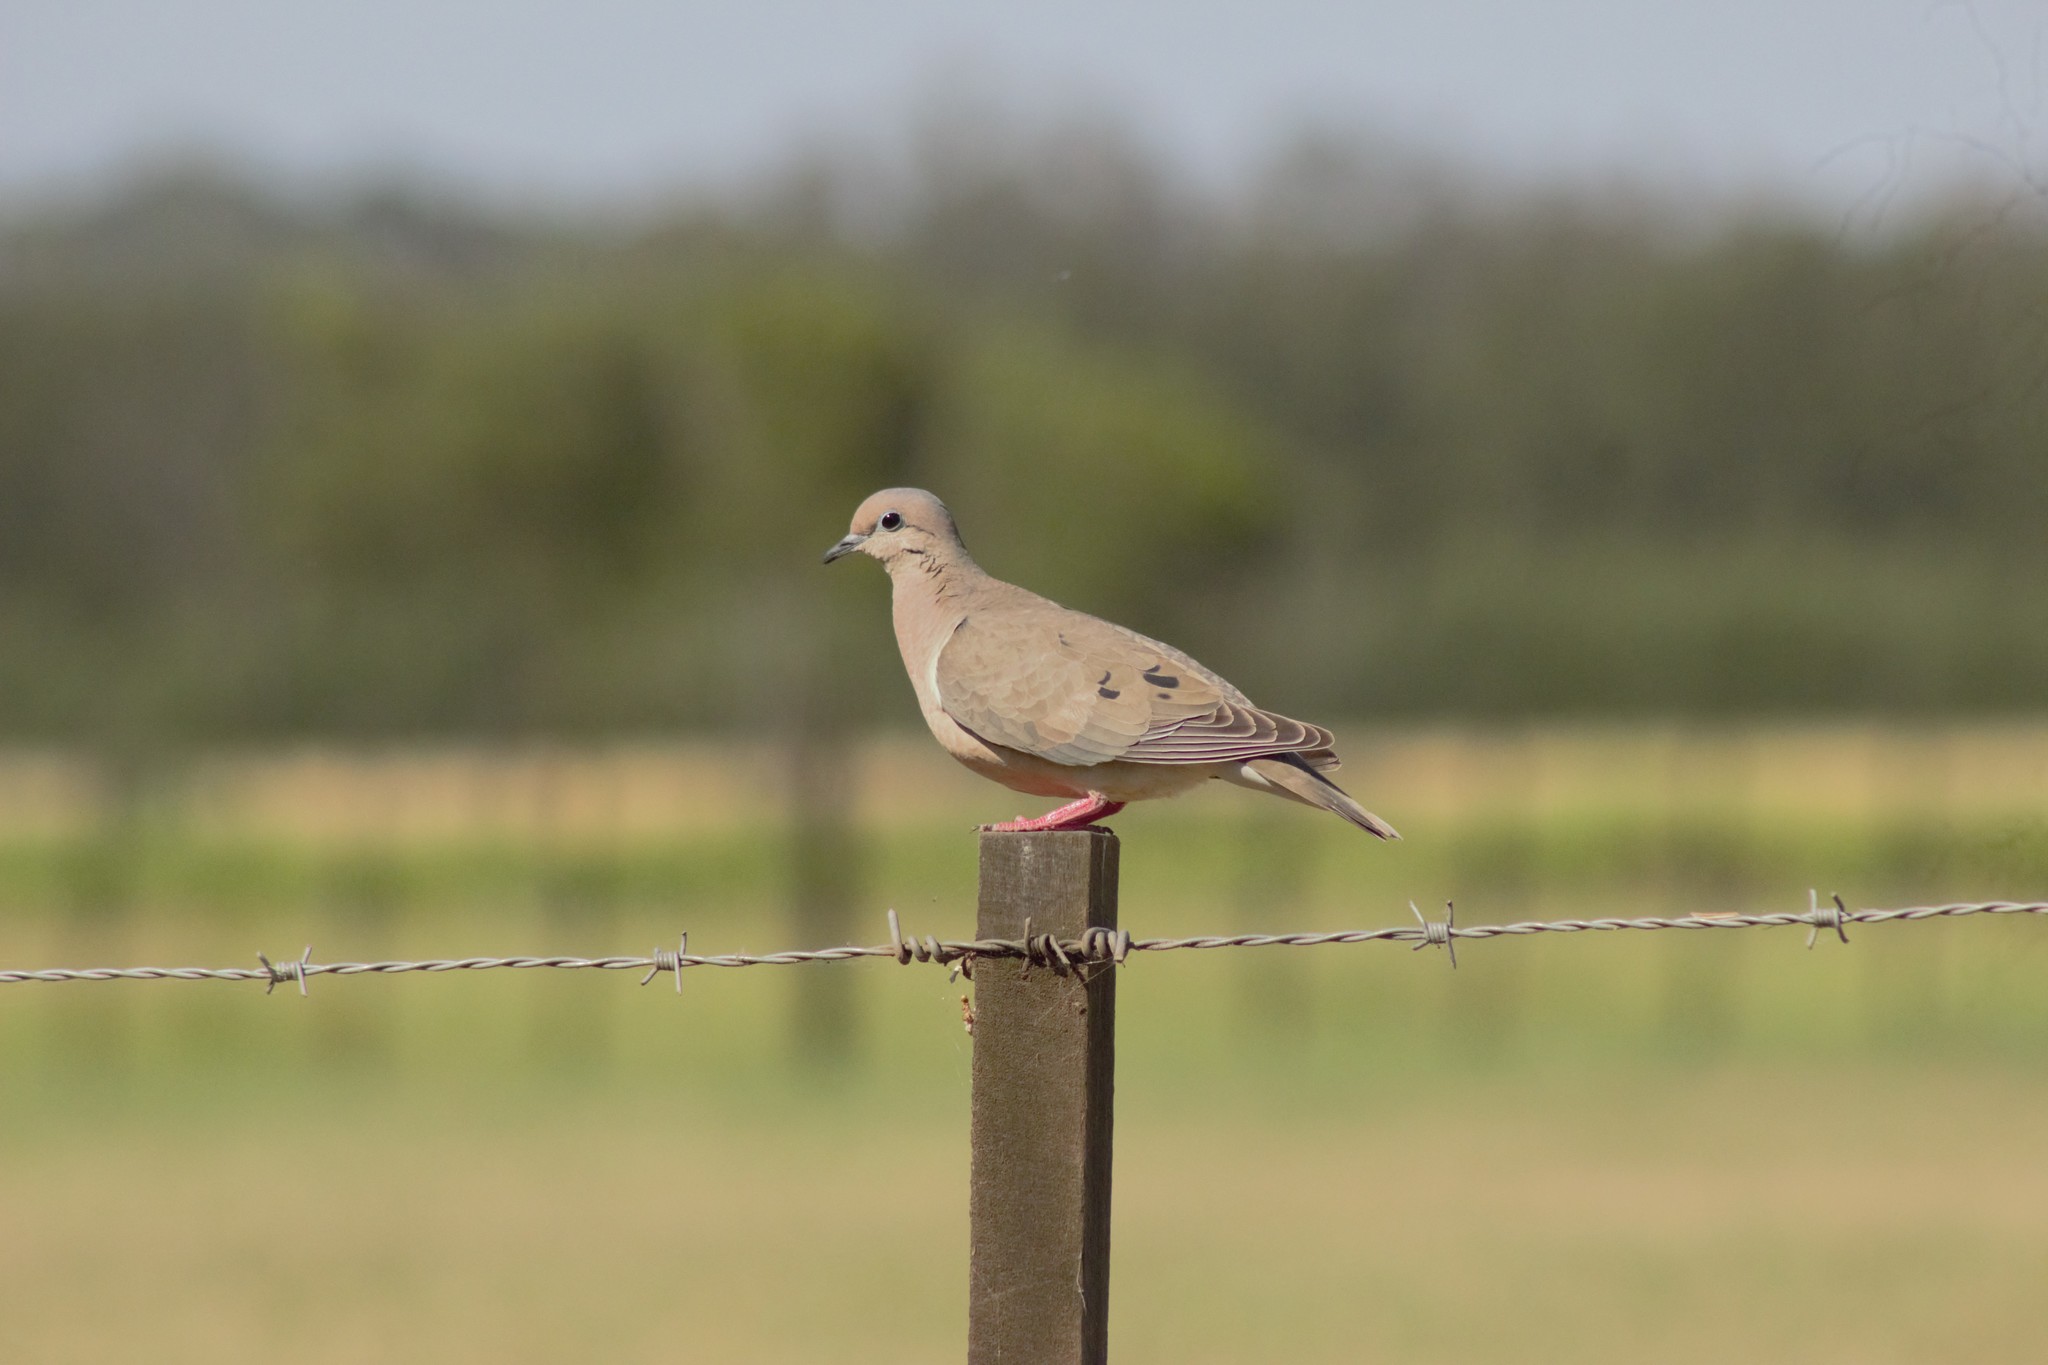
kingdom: Animalia
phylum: Chordata
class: Aves
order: Columbiformes
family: Columbidae
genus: Zenaida
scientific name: Zenaida auriculata
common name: Eared dove
